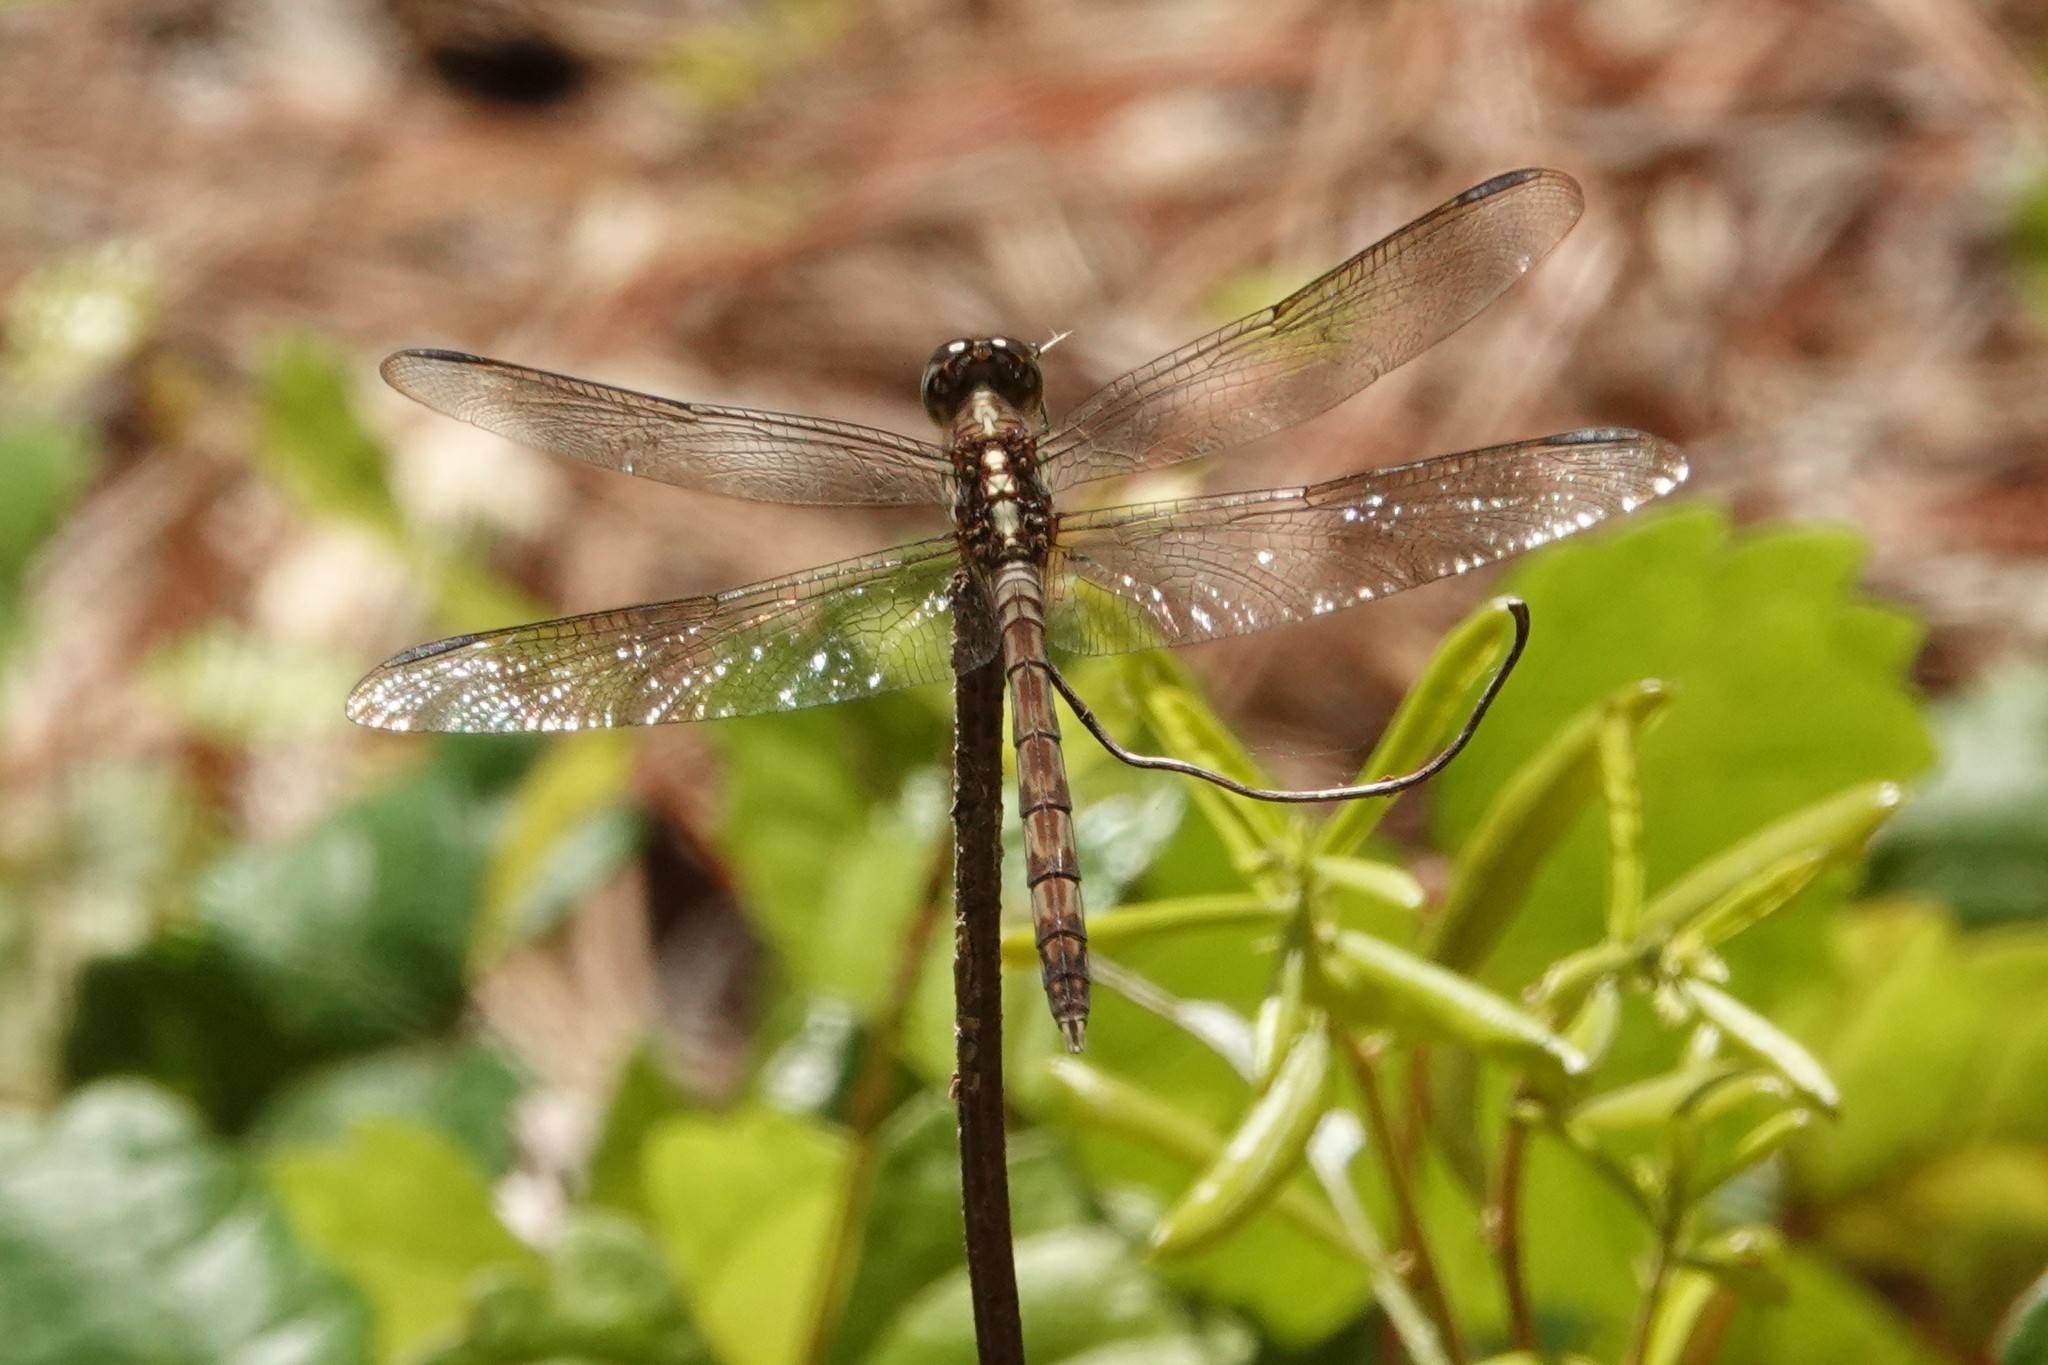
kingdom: Animalia
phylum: Arthropoda
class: Insecta
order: Odonata
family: Libellulidae
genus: Erythrodiplax
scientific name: Erythrodiplax umbrata
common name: Band-winged dragonlet
